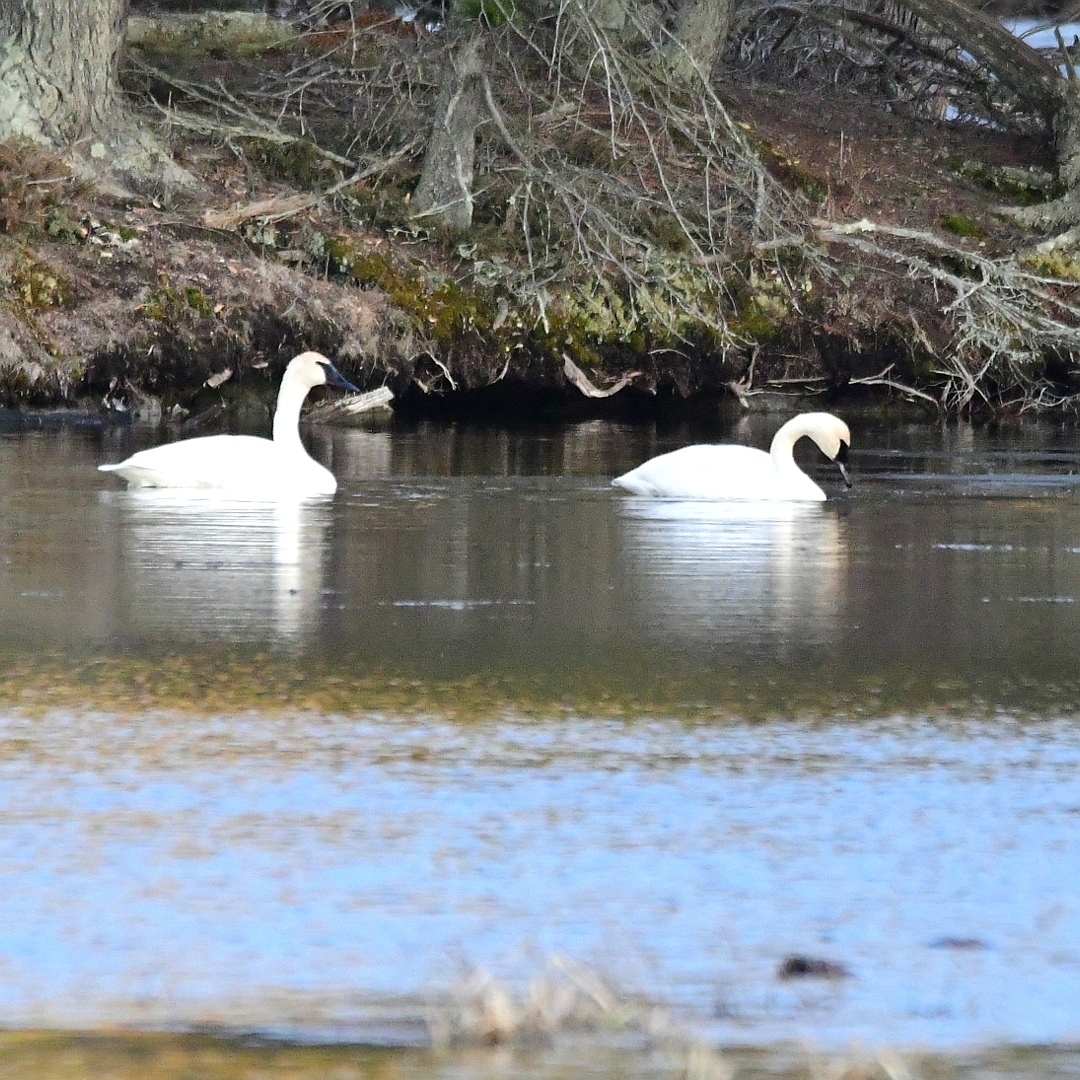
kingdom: Animalia
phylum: Chordata
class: Aves
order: Anseriformes
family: Anatidae
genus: Cygnus
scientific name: Cygnus buccinator
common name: Trumpeter swan
